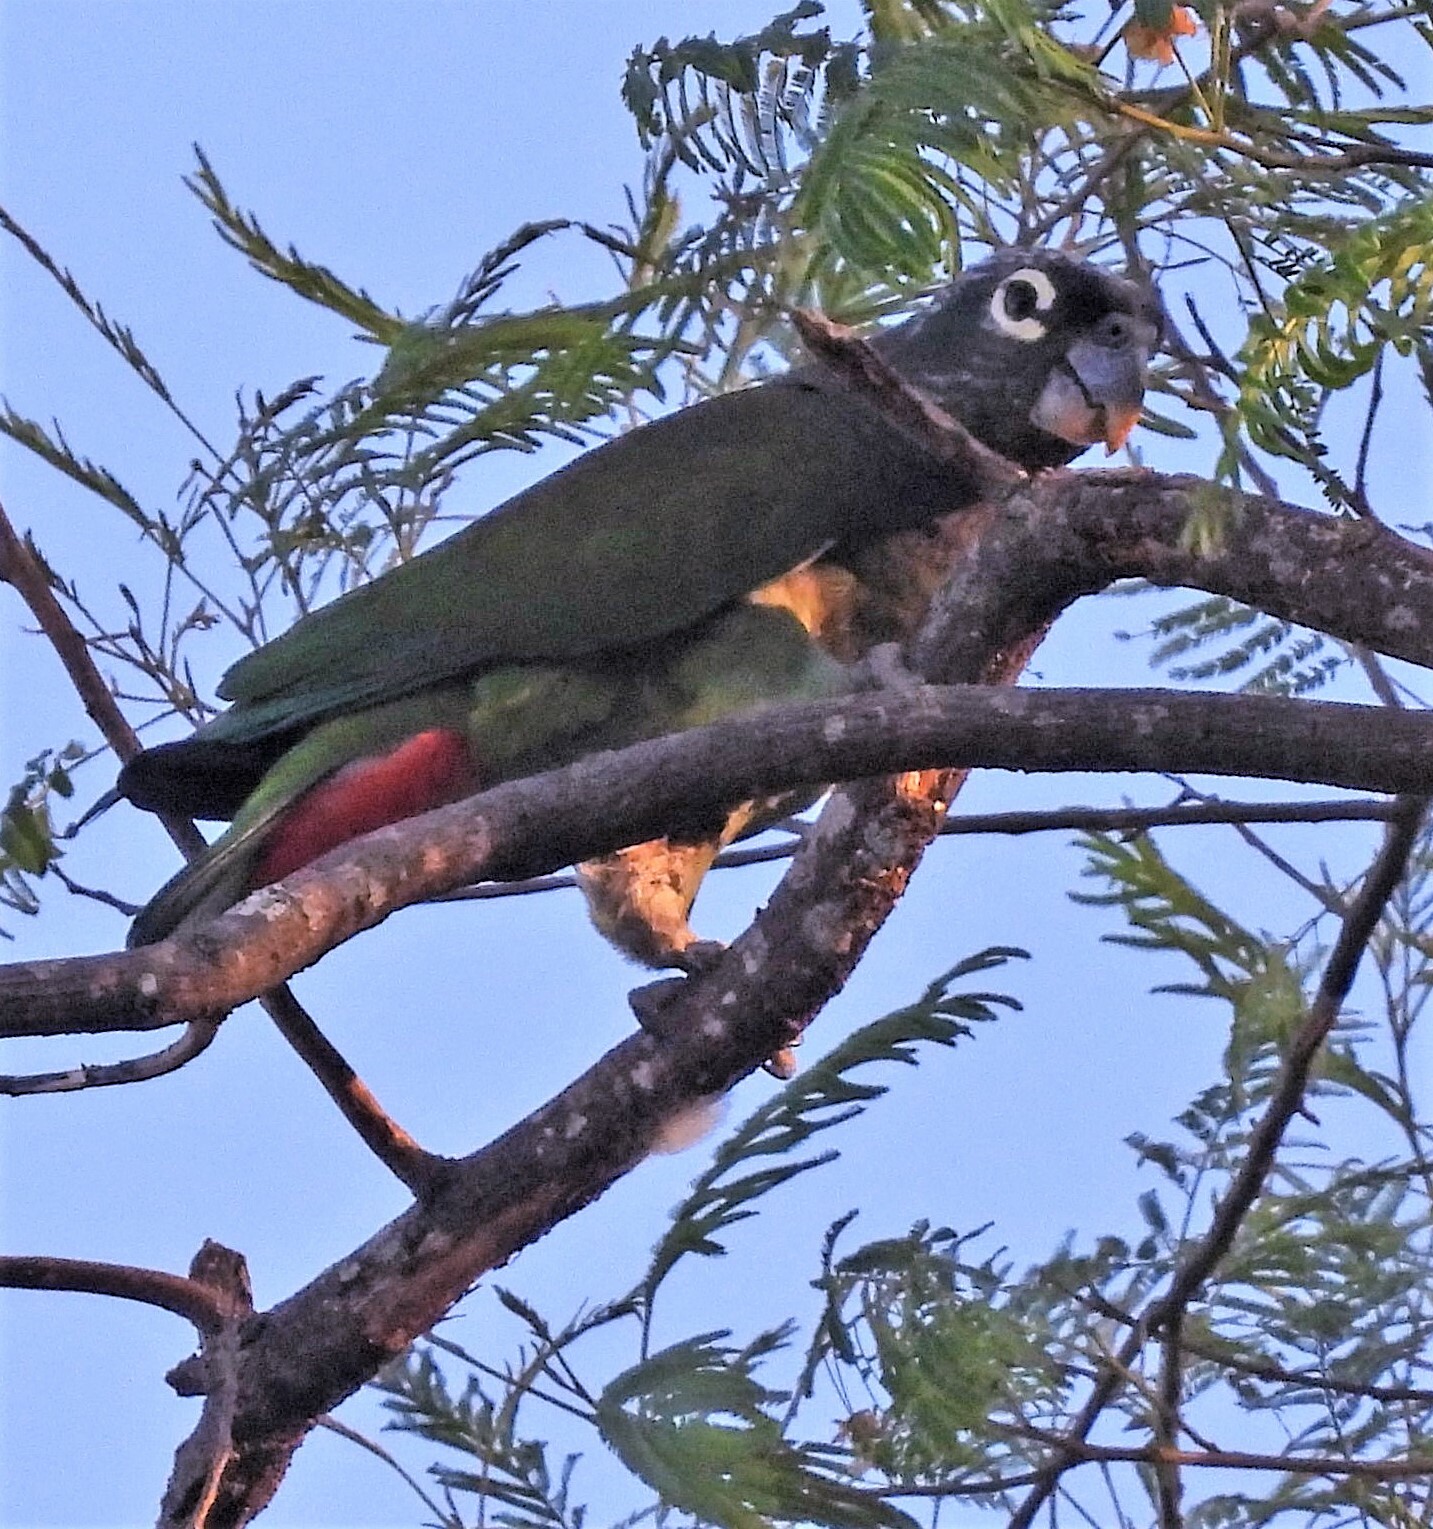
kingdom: Animalia
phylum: Chordata
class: Aves
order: Psittaciformes
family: Psittacidae
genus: Pionus
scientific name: Pionus maximiliani
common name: Scaly-headed parrot
